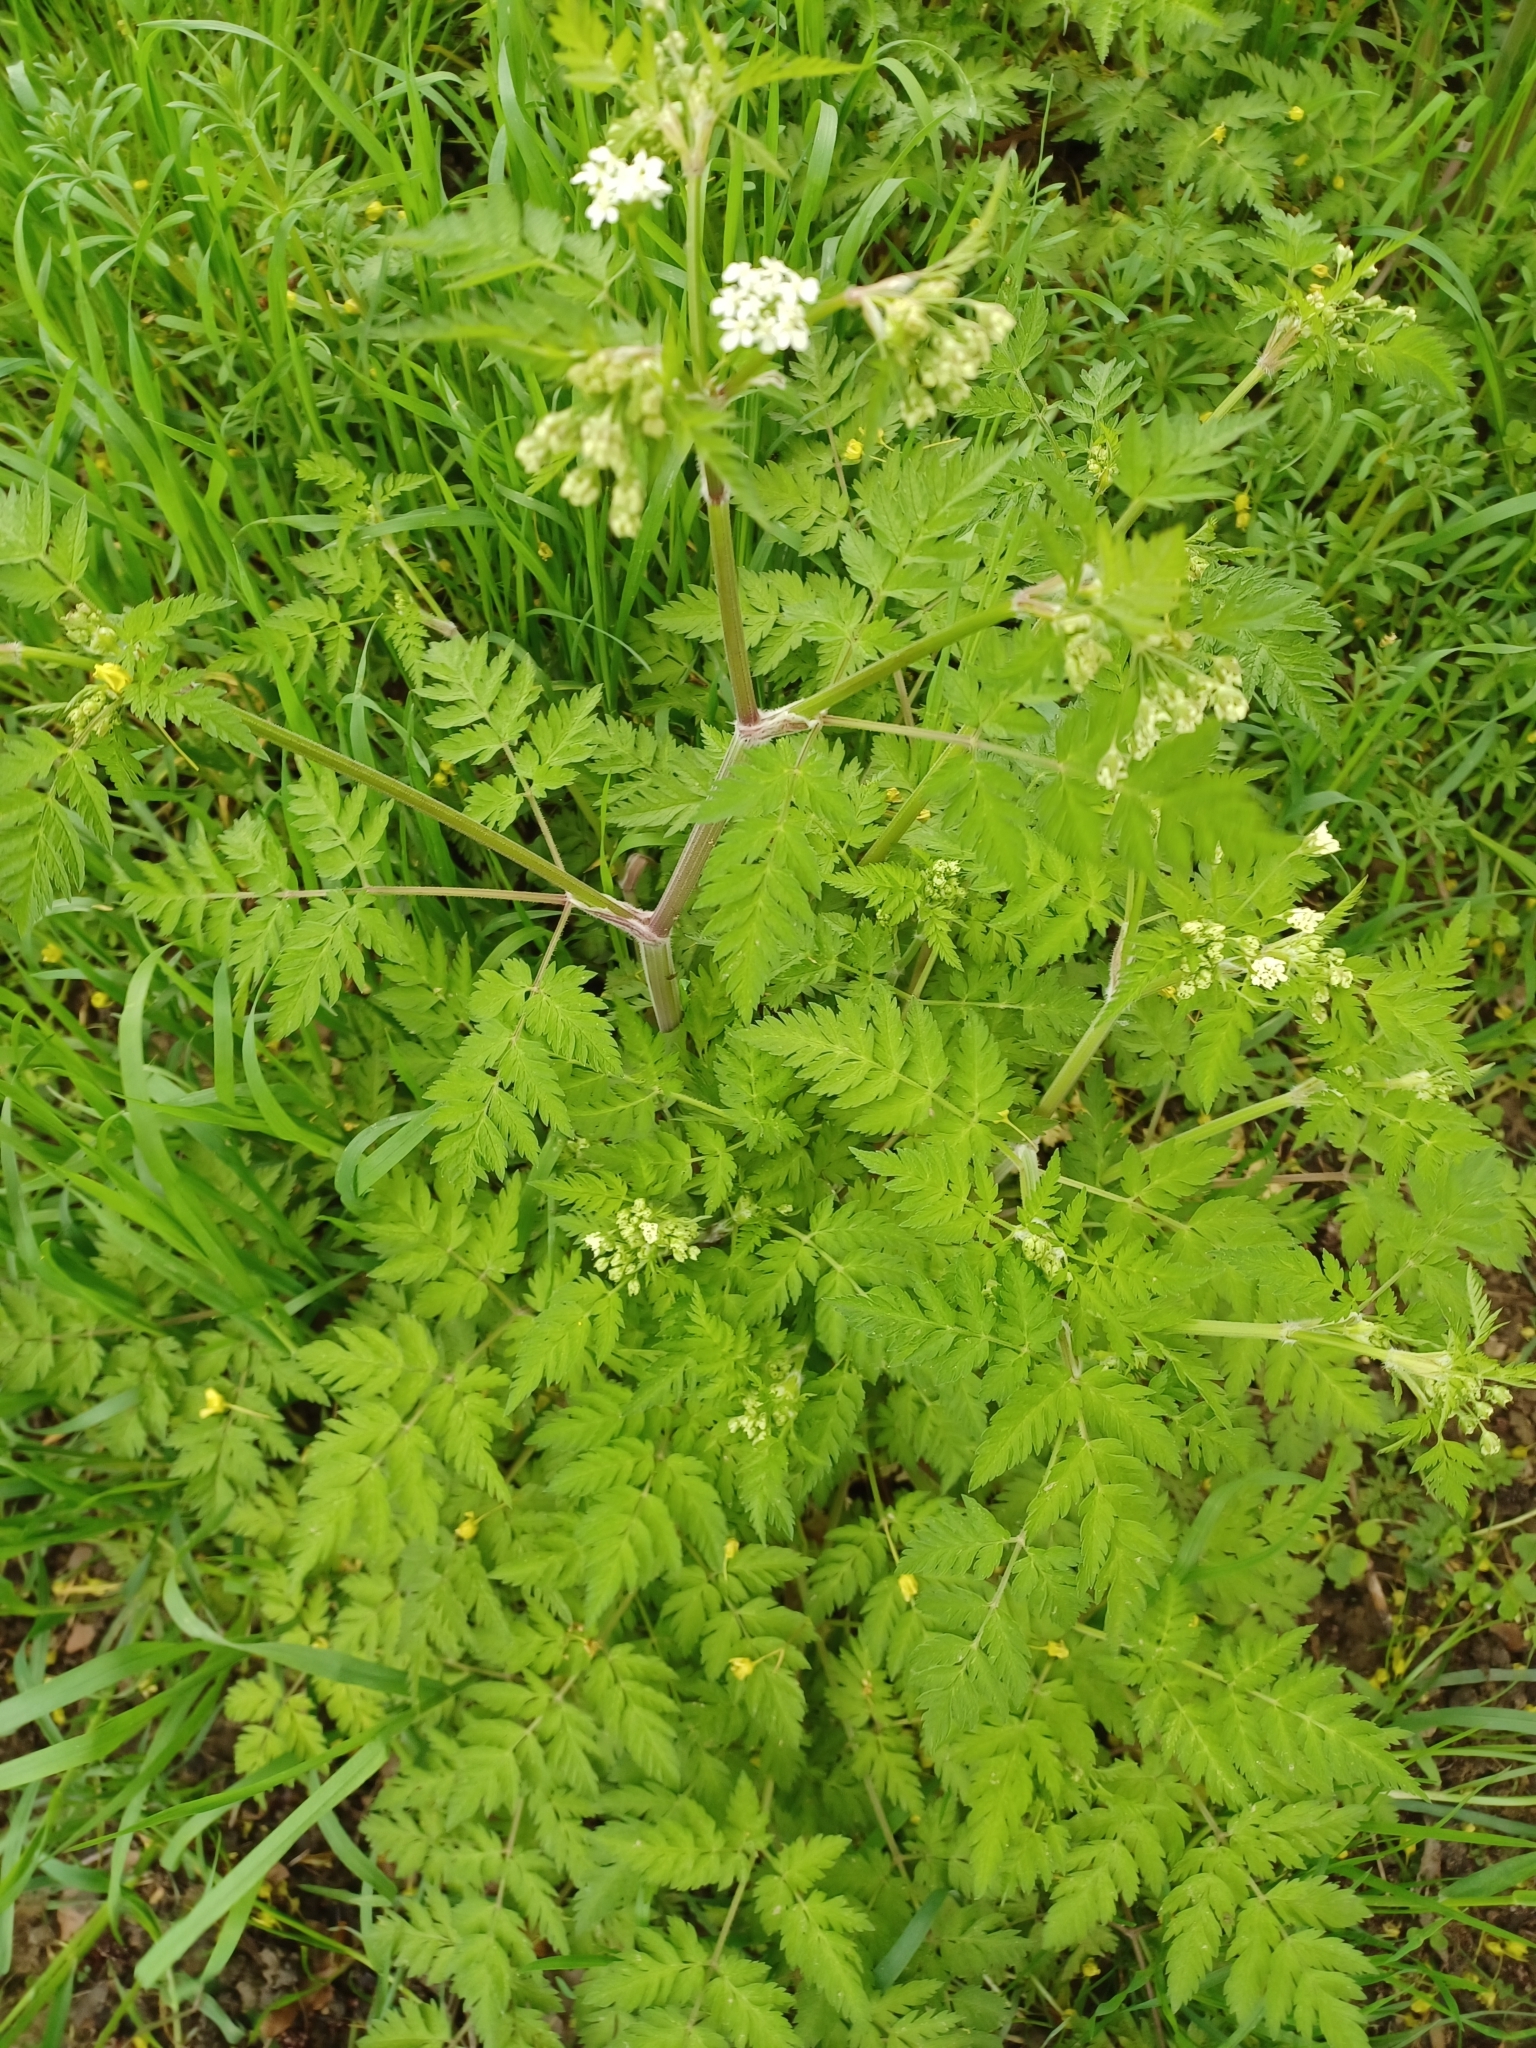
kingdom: Plantae
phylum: Tracheophyta
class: Magnoliopsida
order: Apiales
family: Apiaceae
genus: Anthriscus
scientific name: Anthriscus sylvestris
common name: Cow parsley
